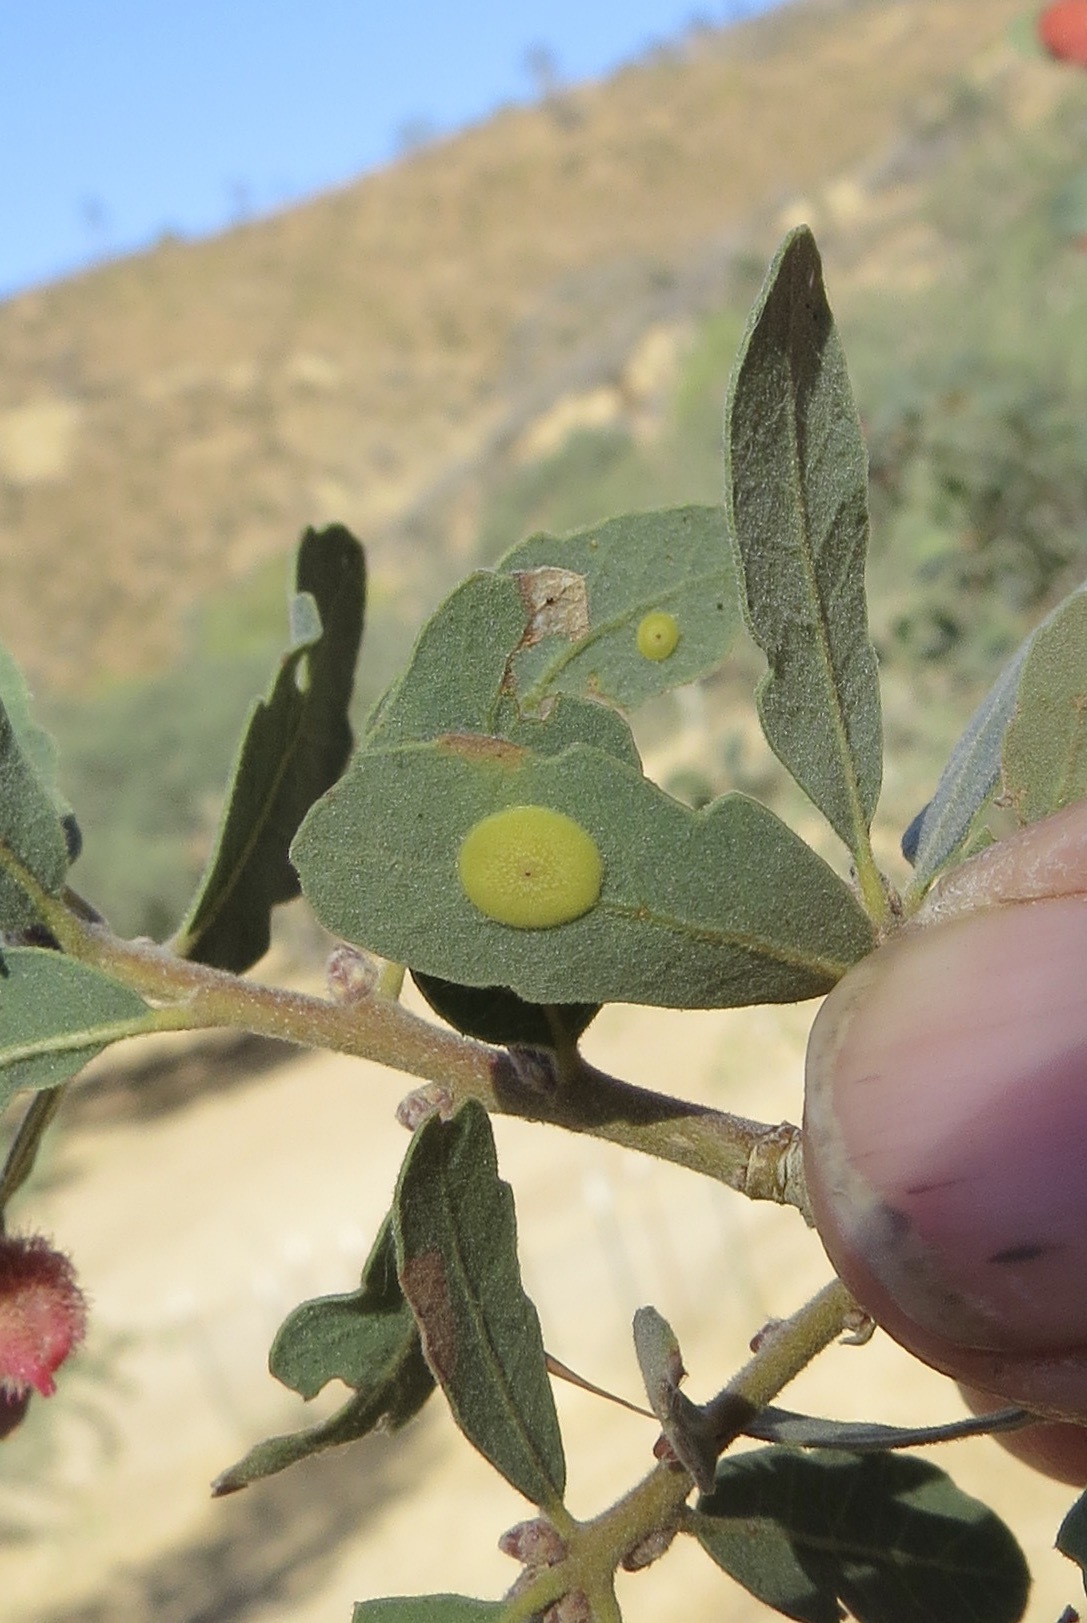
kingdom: Animalia
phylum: Arthropoda
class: Insecta
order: Hymenoptera
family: Cynipidae
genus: Andricus
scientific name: Andricus
